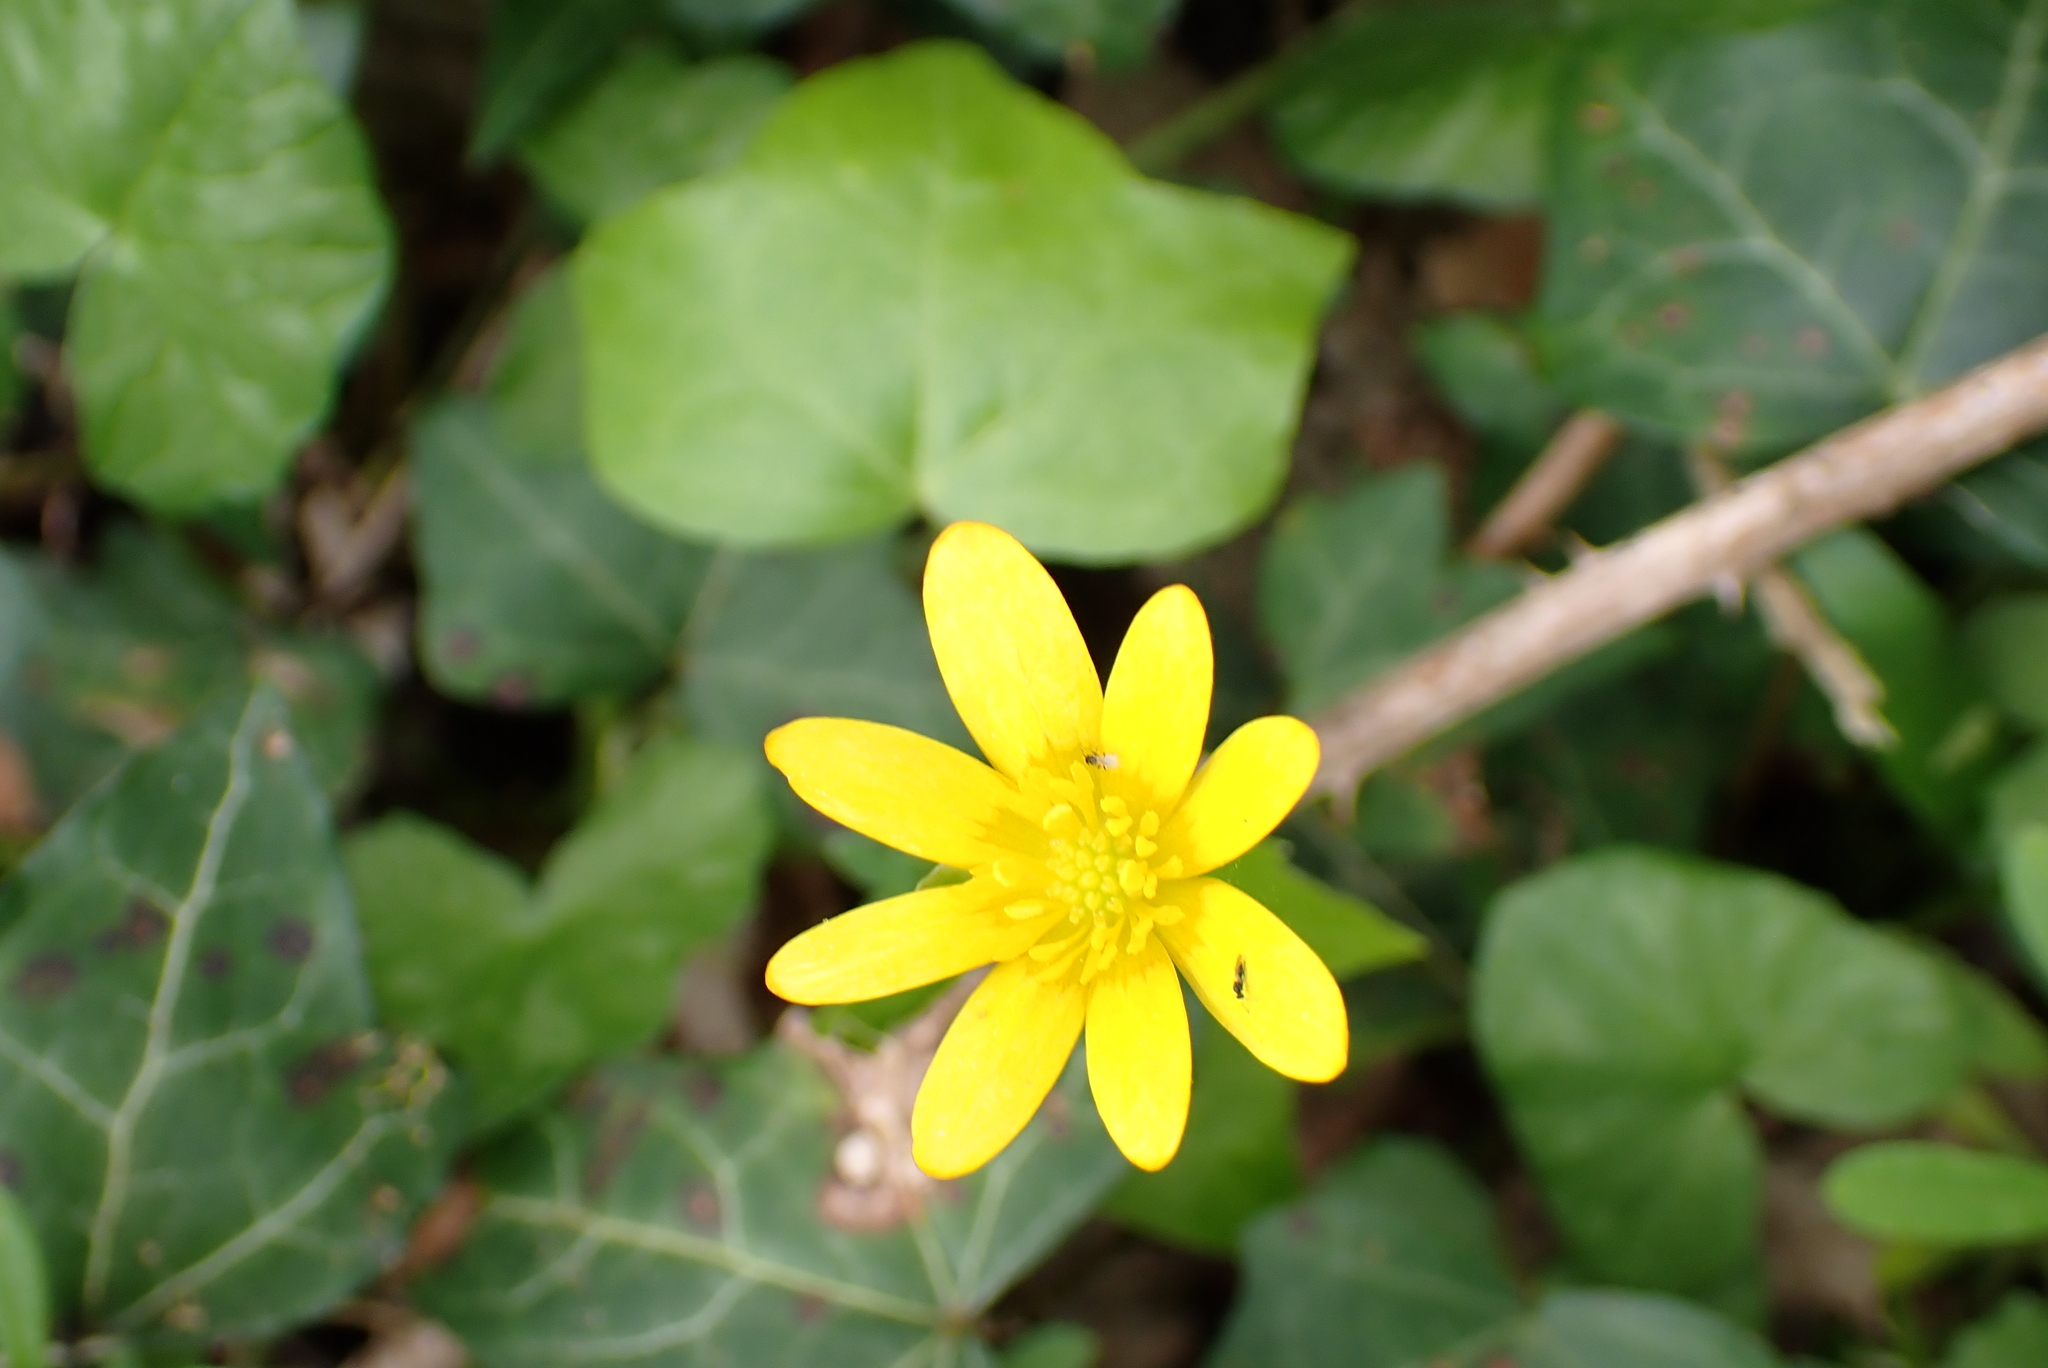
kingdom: Plantae
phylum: Tracheophyta
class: Magnoliopsida
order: Ranunculales
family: Ranunculaceae
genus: Ficaria
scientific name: Ficaria verna
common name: Lesser celandine
